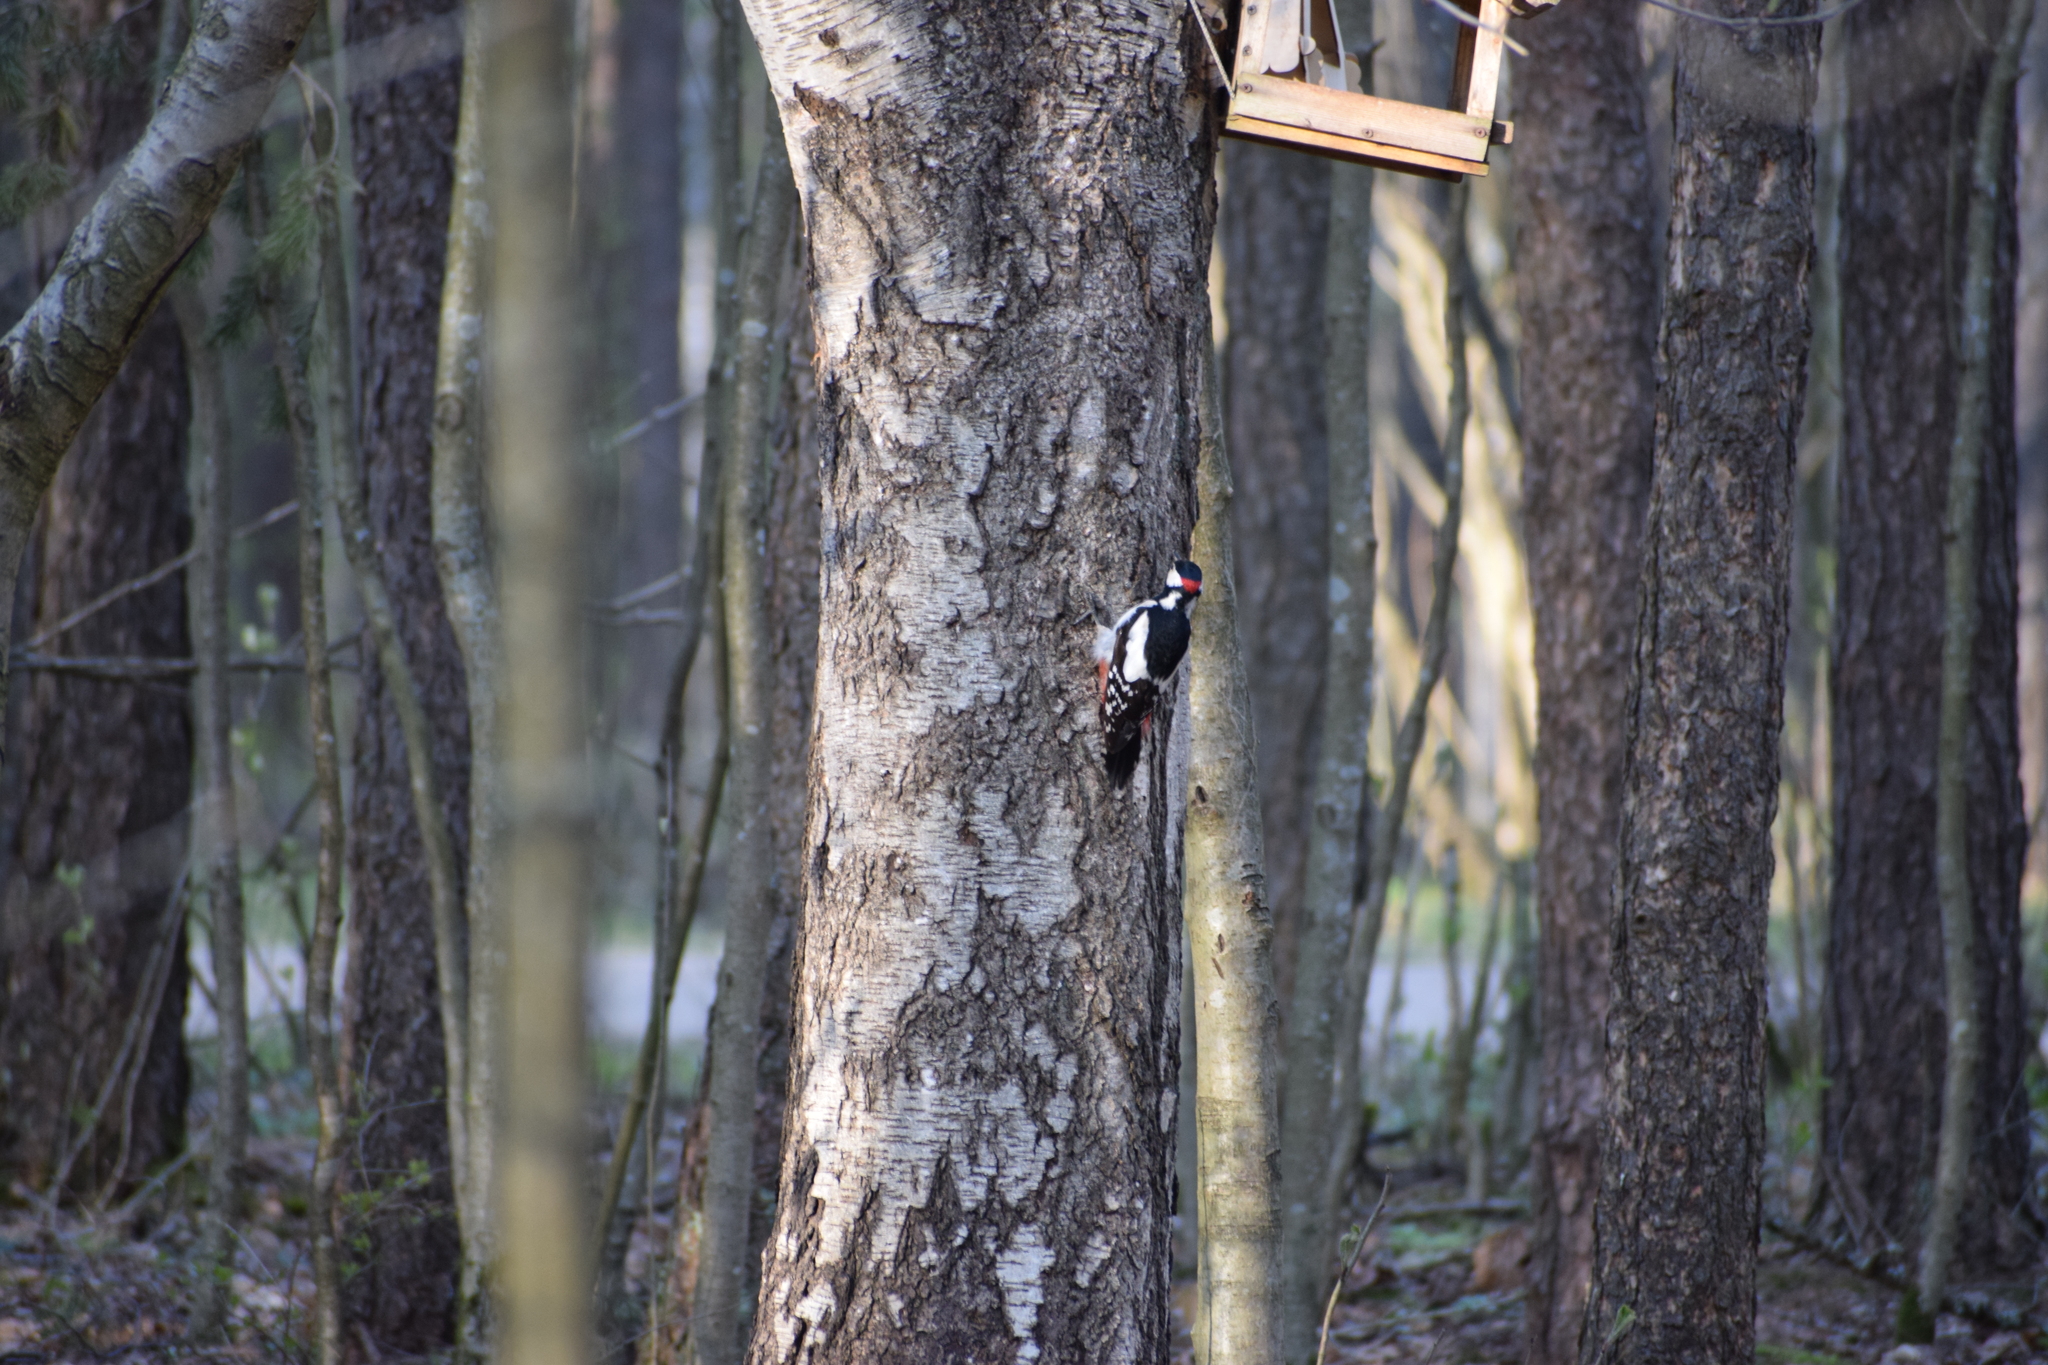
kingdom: Animalia
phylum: Chordata
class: Aves
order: Piciformes
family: Picidae
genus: Dendrocopos
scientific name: Dendrocopos major
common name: Great spotted woodpecker
